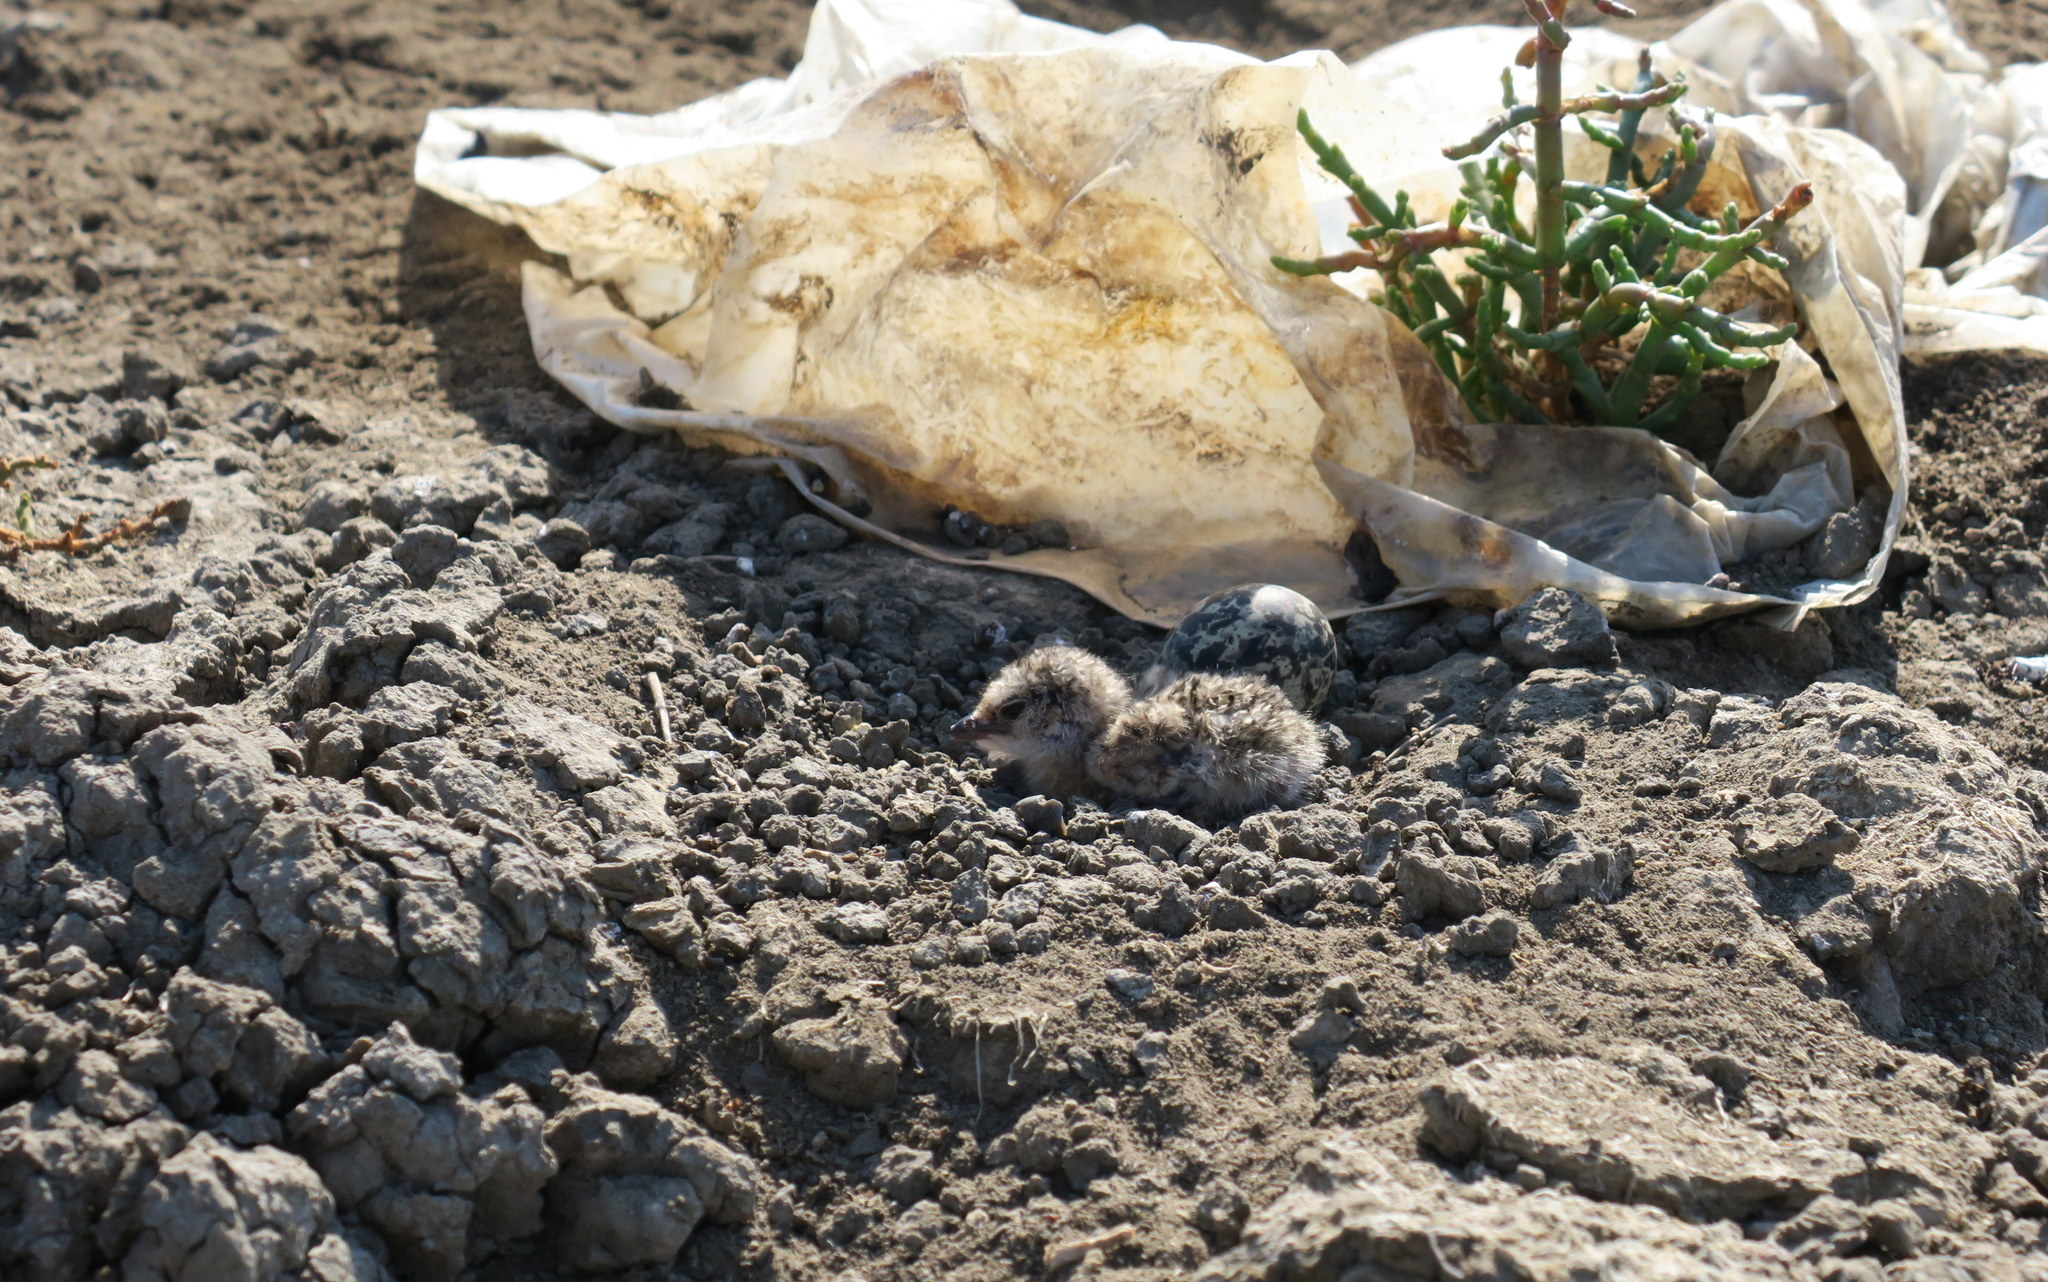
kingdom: Animalia
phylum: Chordata
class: Aves
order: Charadriiformes
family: Glareolidae
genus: Glareola
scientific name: Glareola pratincola
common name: Collared pratincole
